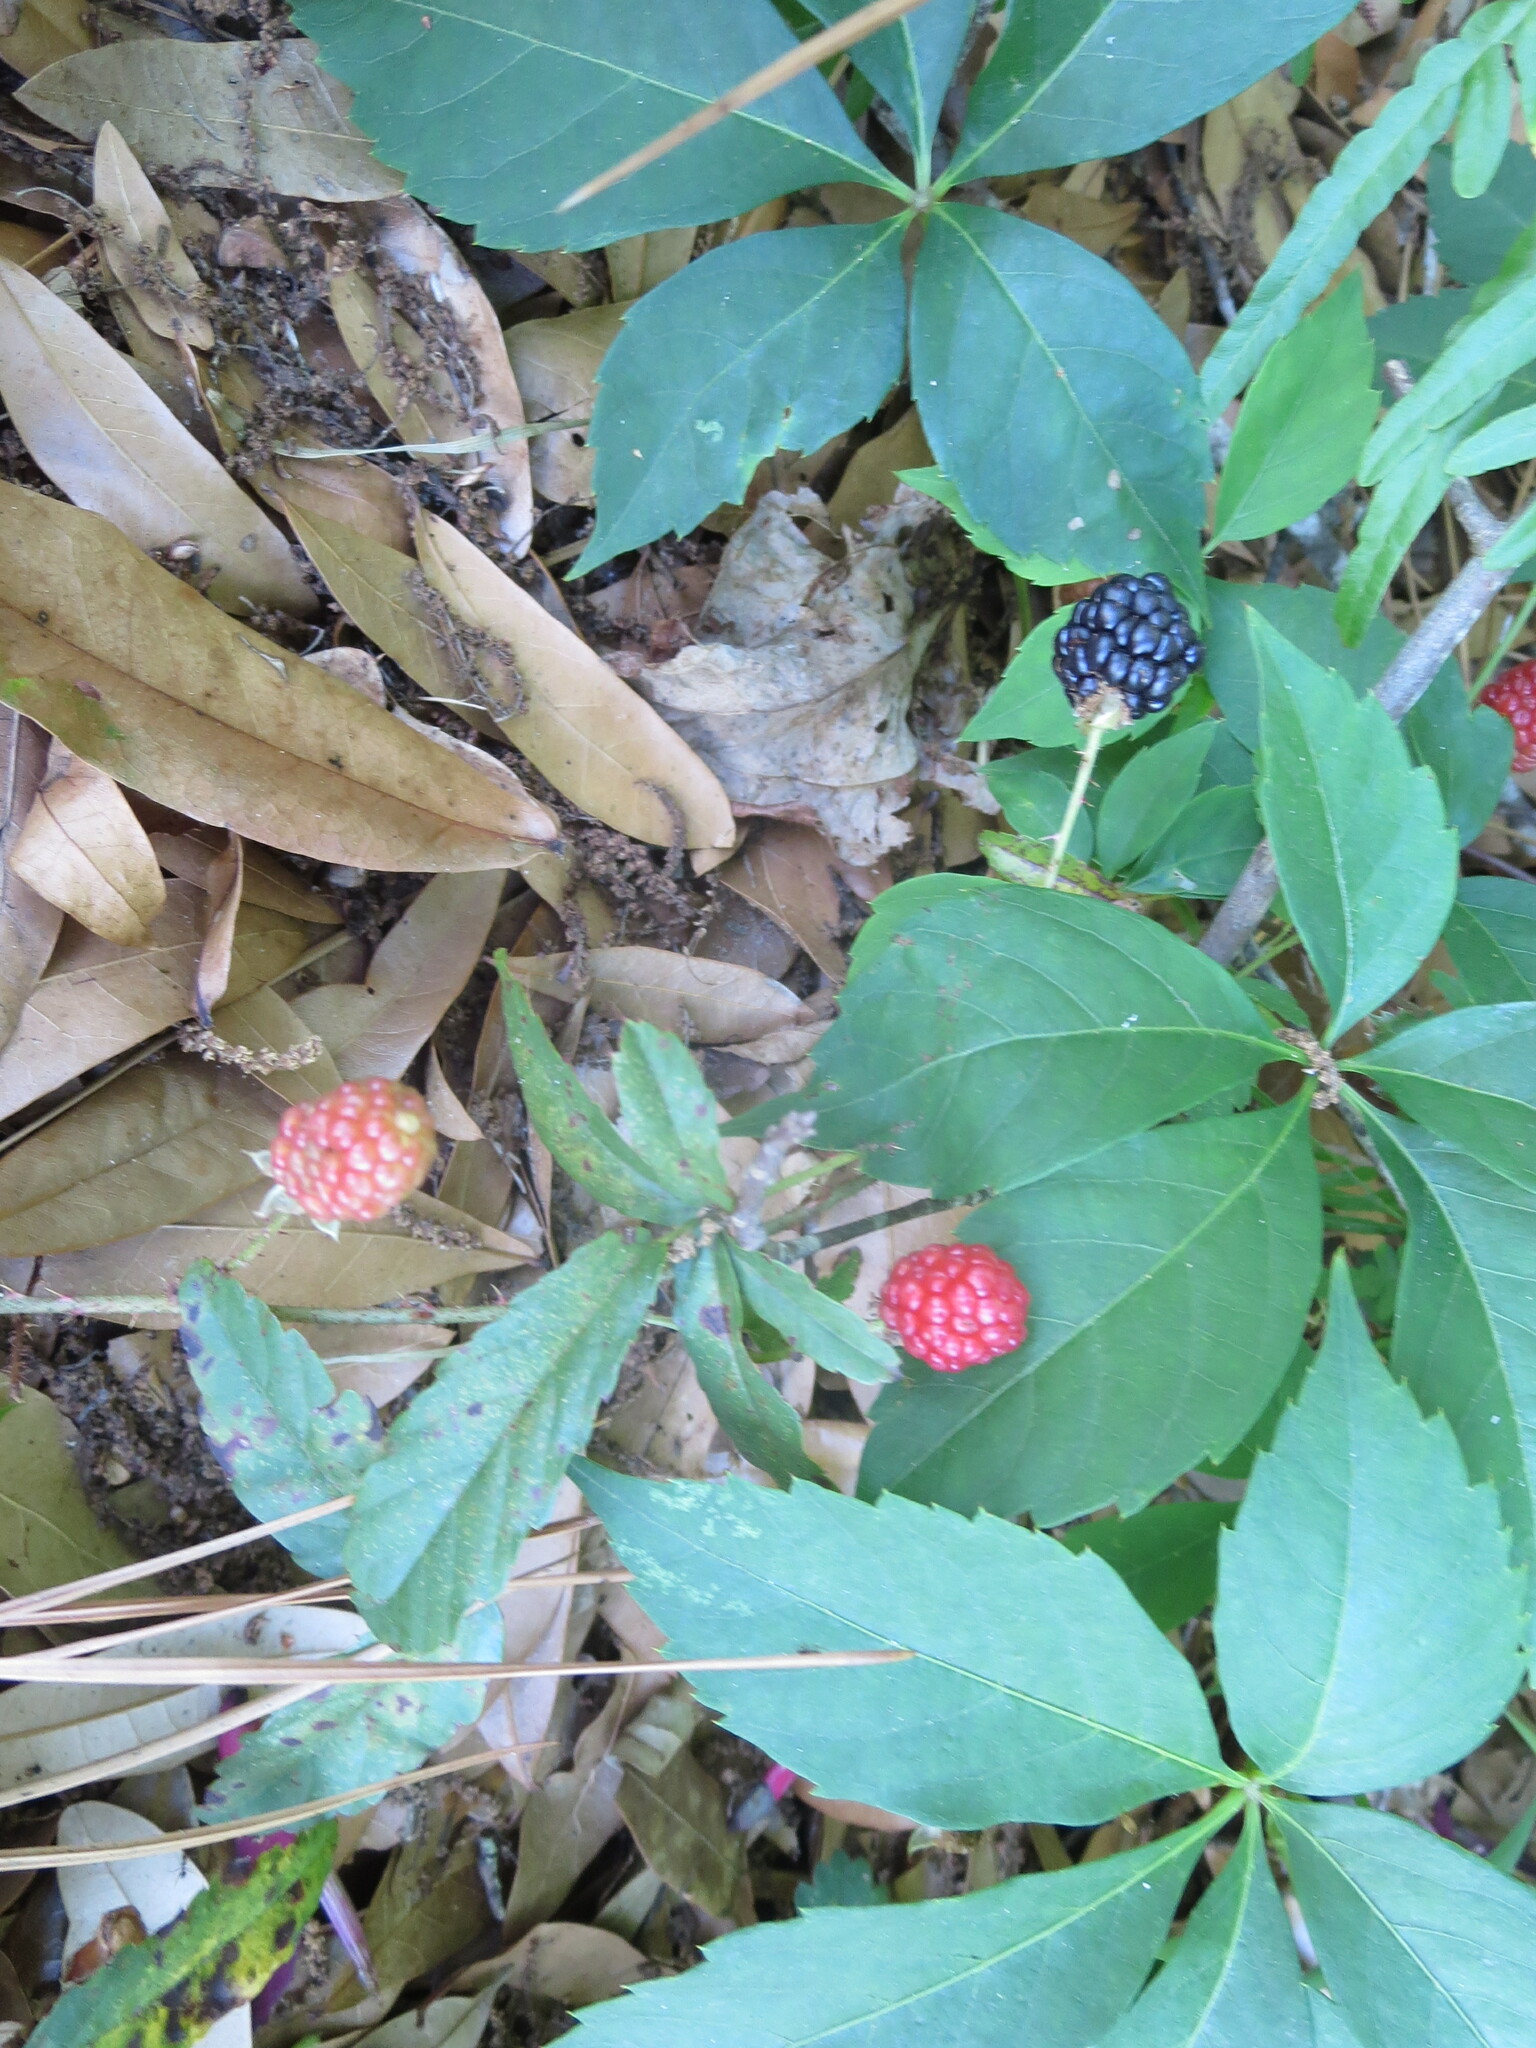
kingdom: Plantae
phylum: Tracheophyta
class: Magnoliopsida
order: Rosales
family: Rosaceae
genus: Rubus
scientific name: Rubus trivialis
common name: Southern dewberry
